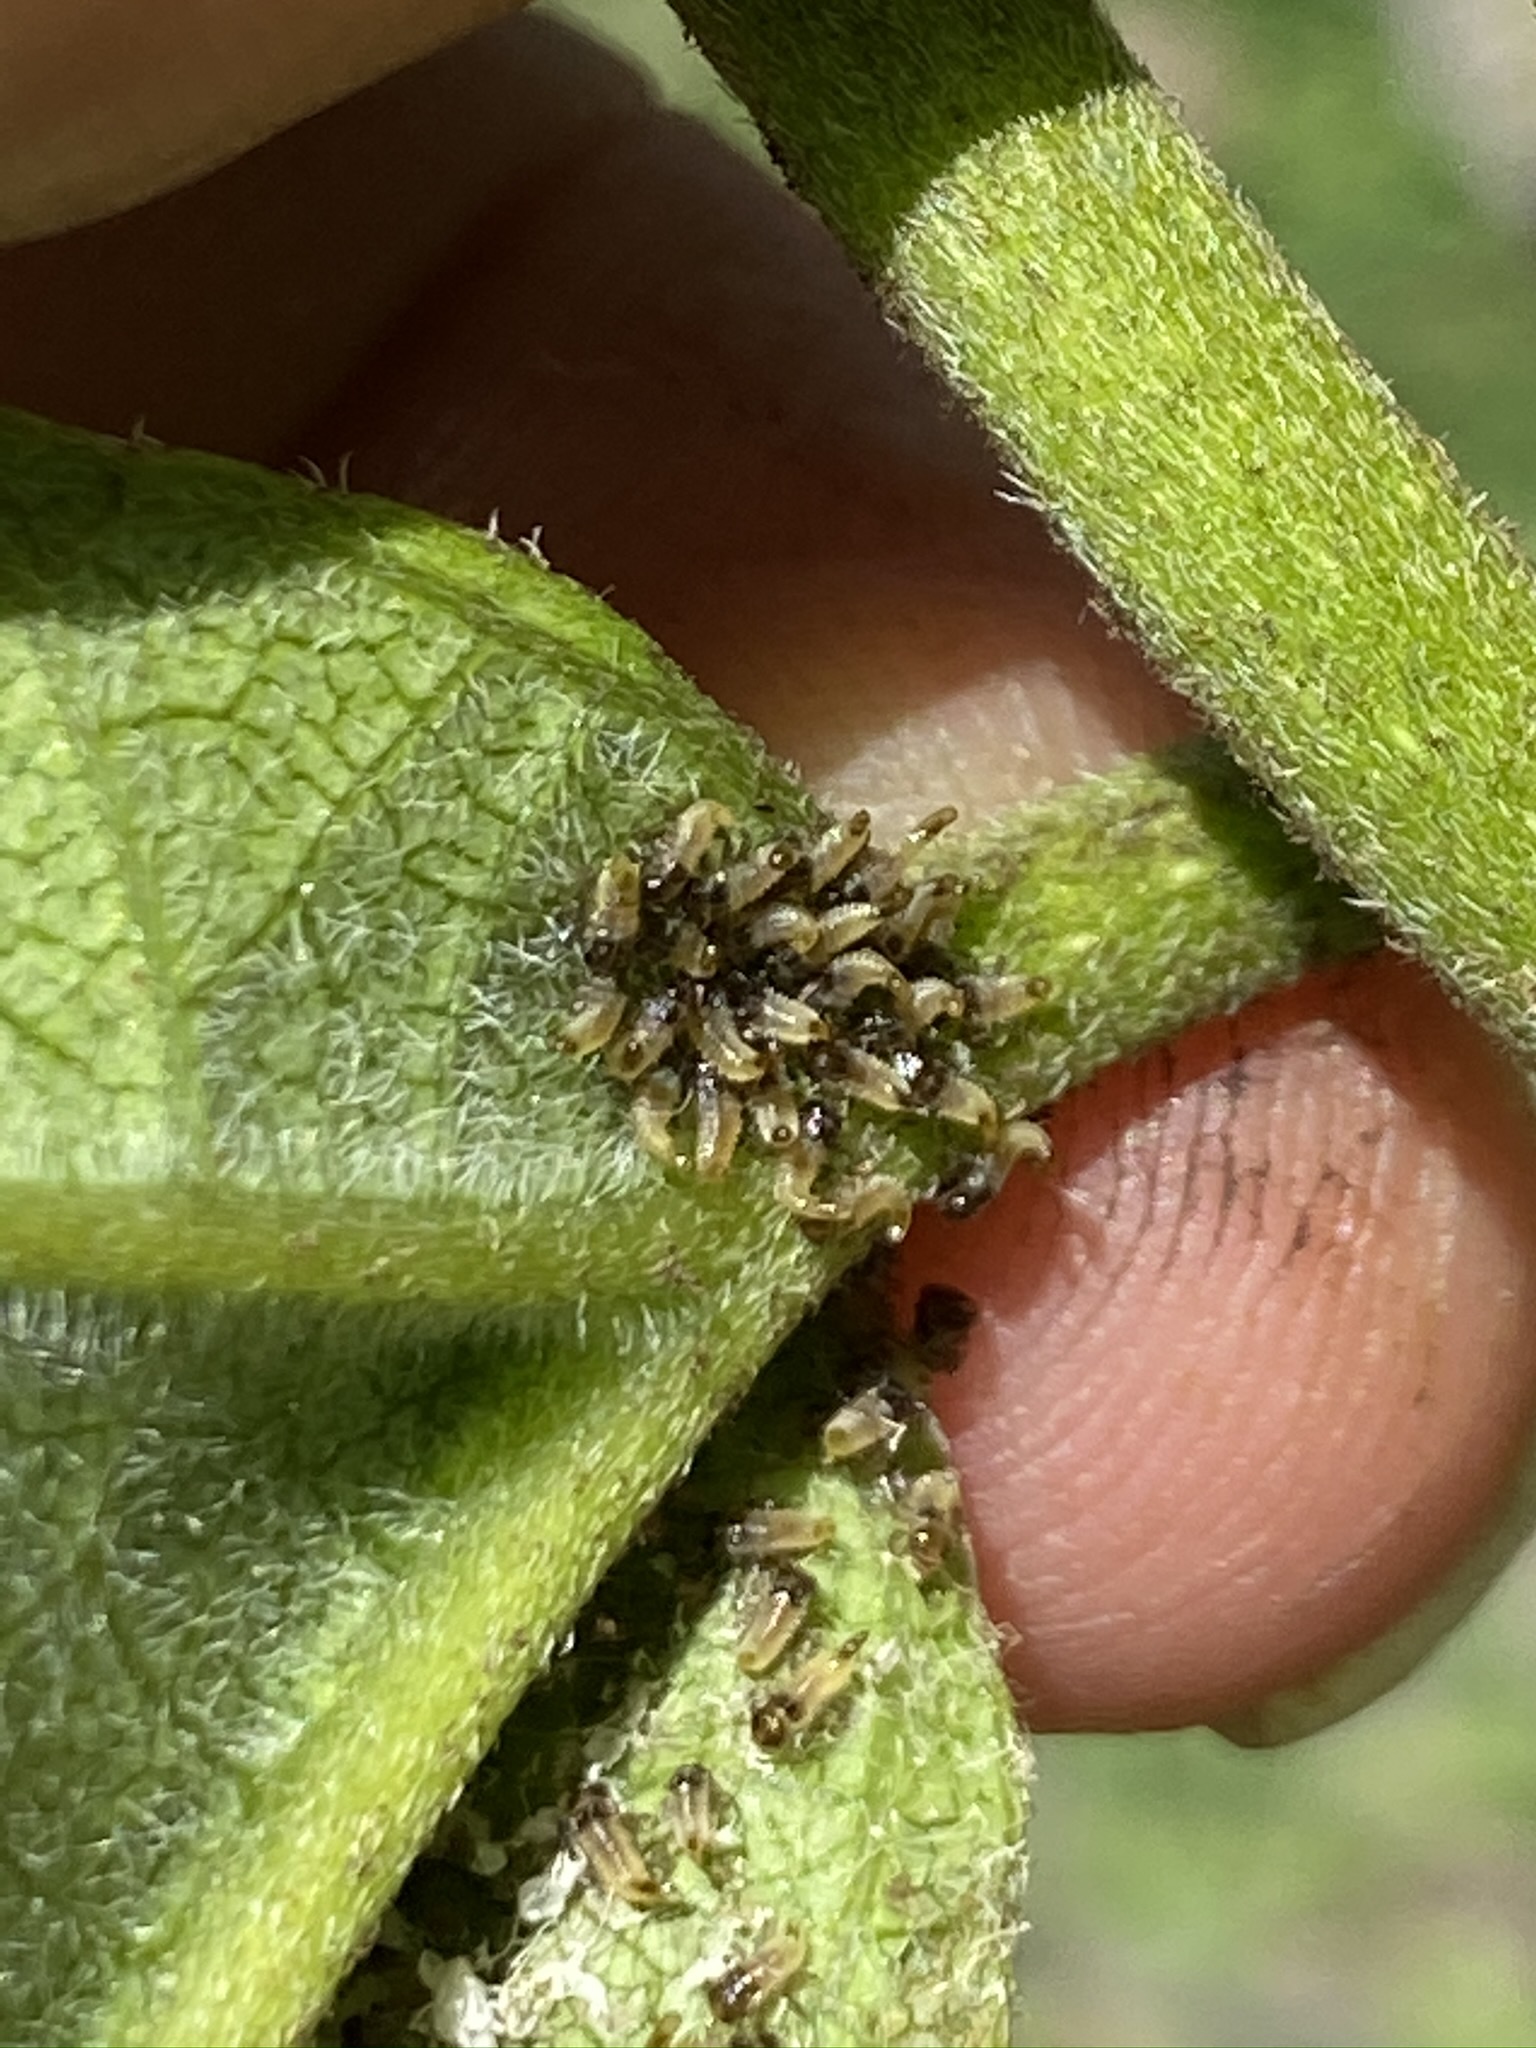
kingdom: Animalia
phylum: Arthropoda
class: Insecta
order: Coleoptera
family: Chrysomelidae
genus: Eurypepla
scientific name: Eurypepla calochroma
